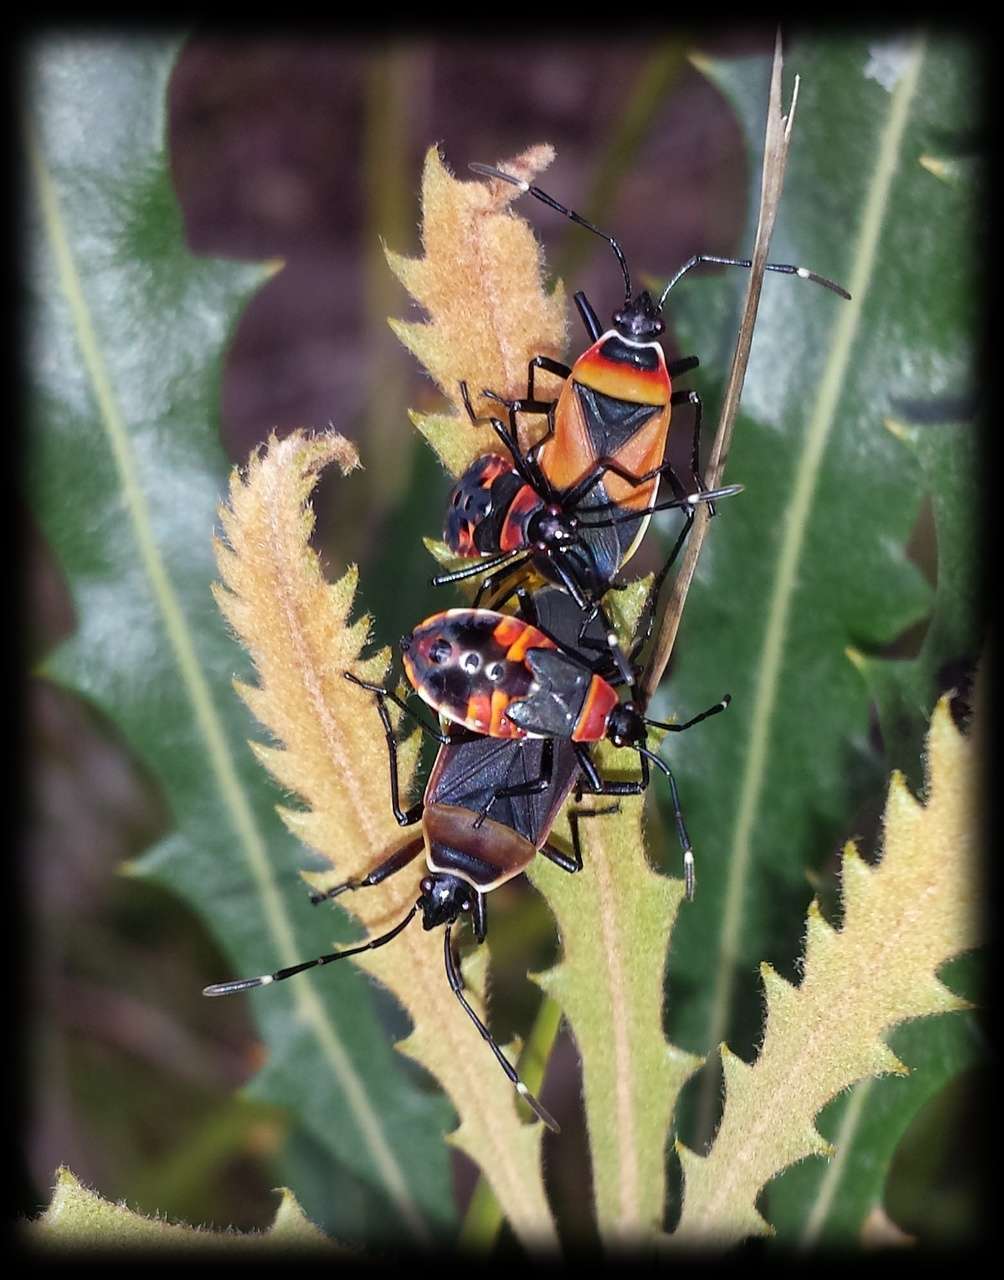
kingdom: Animalia
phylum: Arthropoda
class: Insecta
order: Hemiptera
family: Pyrrhocoridae
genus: Dindymus
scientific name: Dindymus
